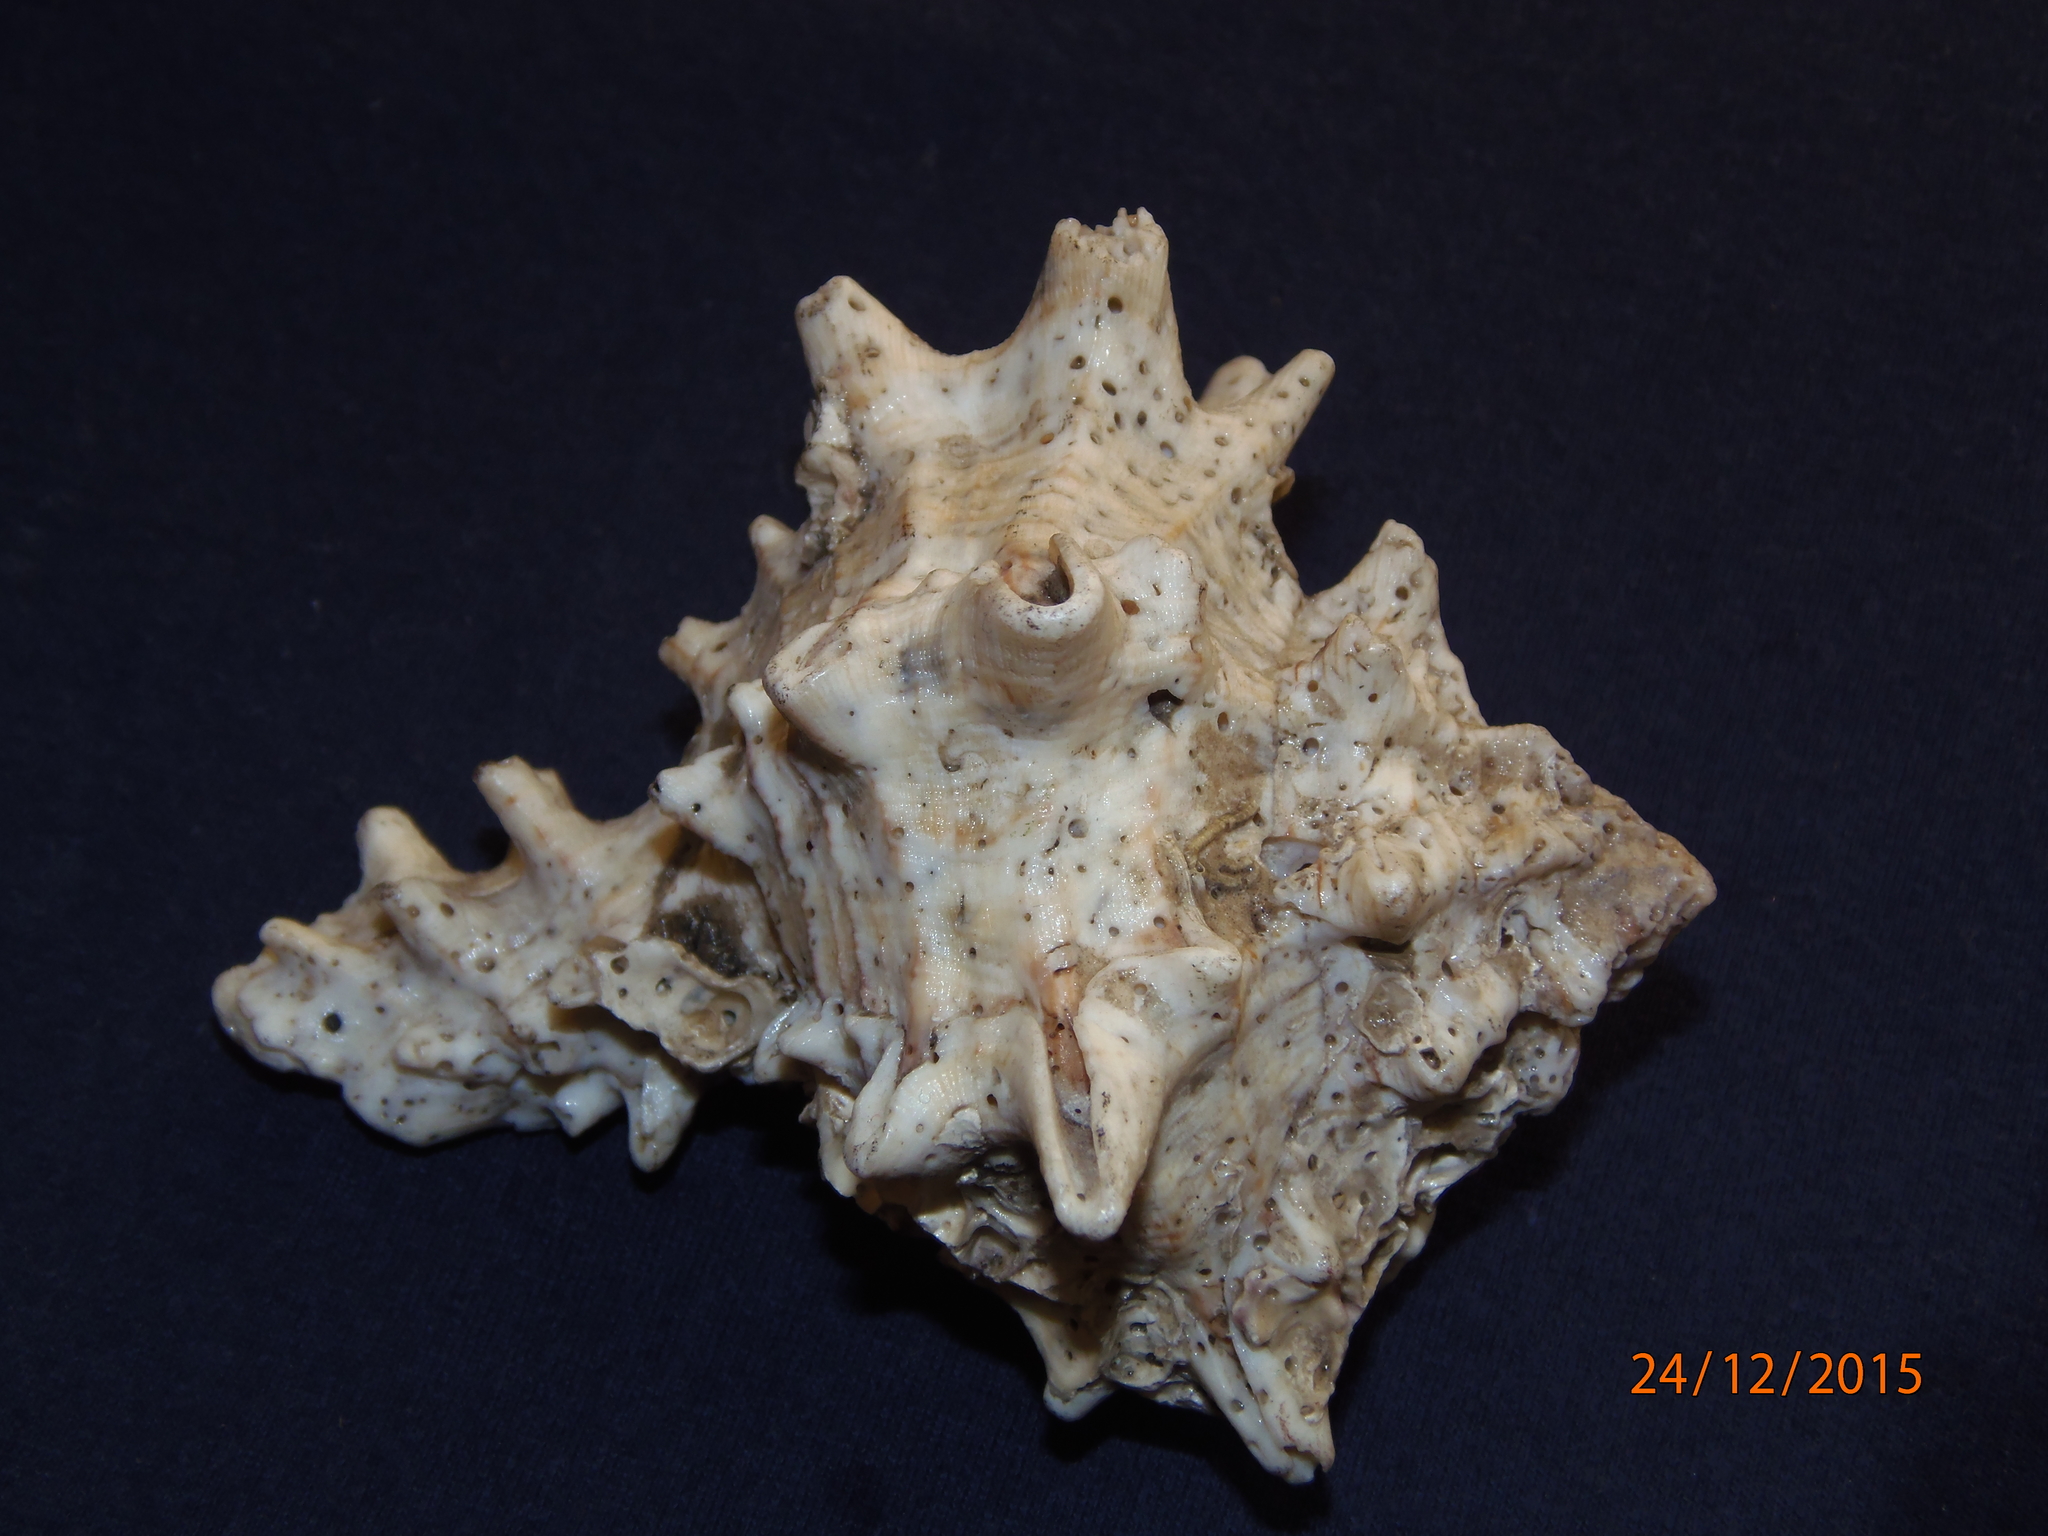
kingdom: Animalia
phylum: Mollusca
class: Gastropoda
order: Neogastropoda
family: Muricidae
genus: Hexaplex
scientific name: Hexaplex fulvescens
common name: Tawny murex
